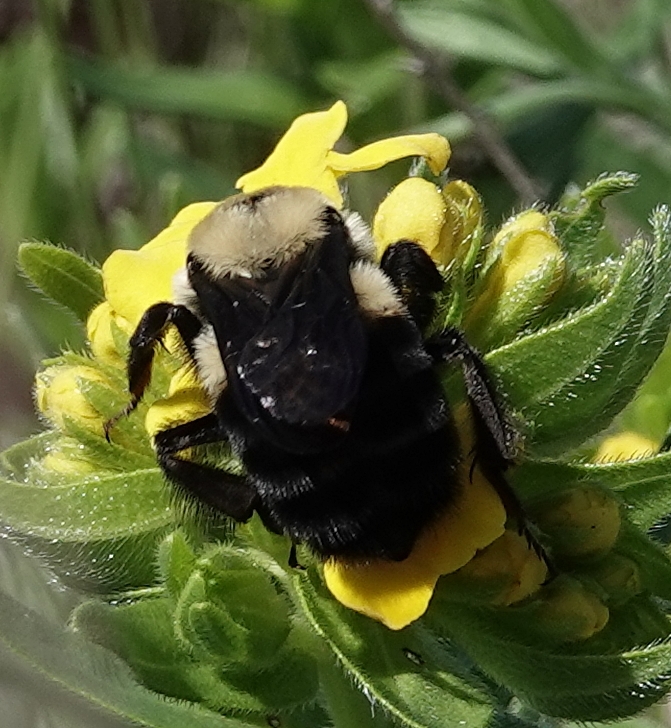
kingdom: Animalia
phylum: Arthropoda
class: Insecta
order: Hymenoptera
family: Apidae
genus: Bombus
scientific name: Bombus griseocollis
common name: Brown-belted bumble bee
